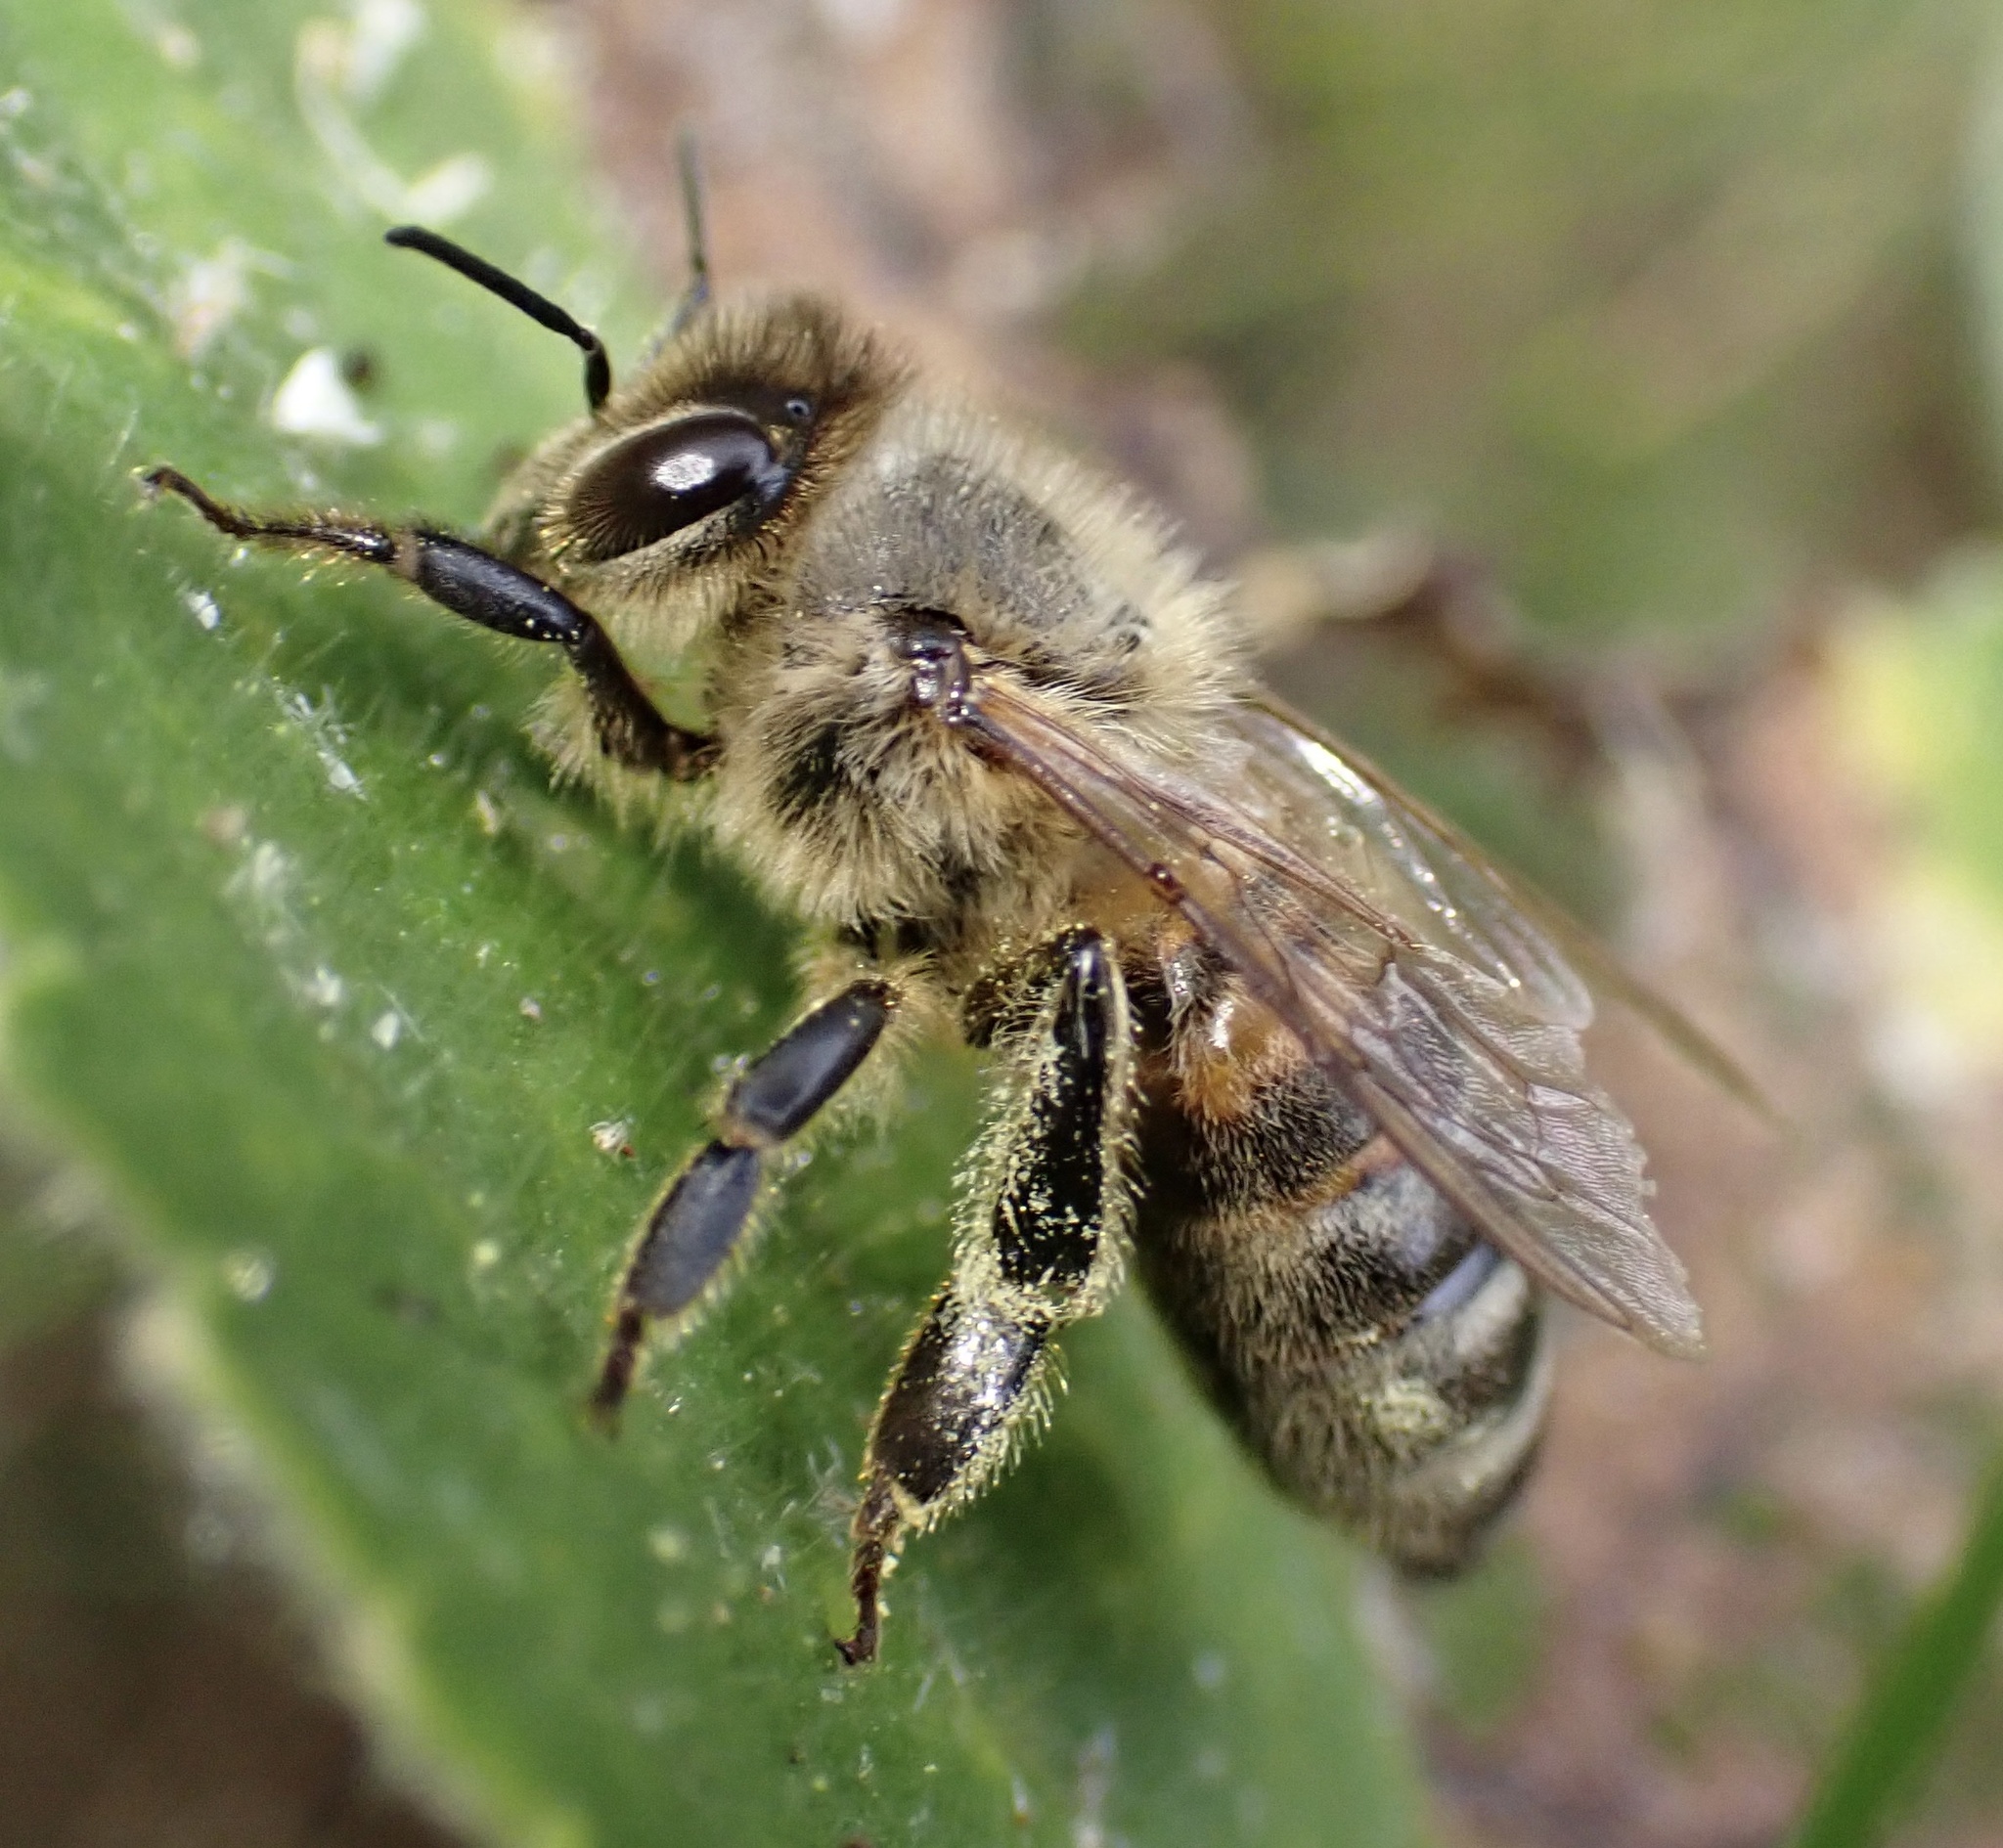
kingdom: Animalia
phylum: Arthropoda
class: Insecta
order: Hymenoptera
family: Apidae
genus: Apis
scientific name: Apis mellifera
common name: Honey bee
